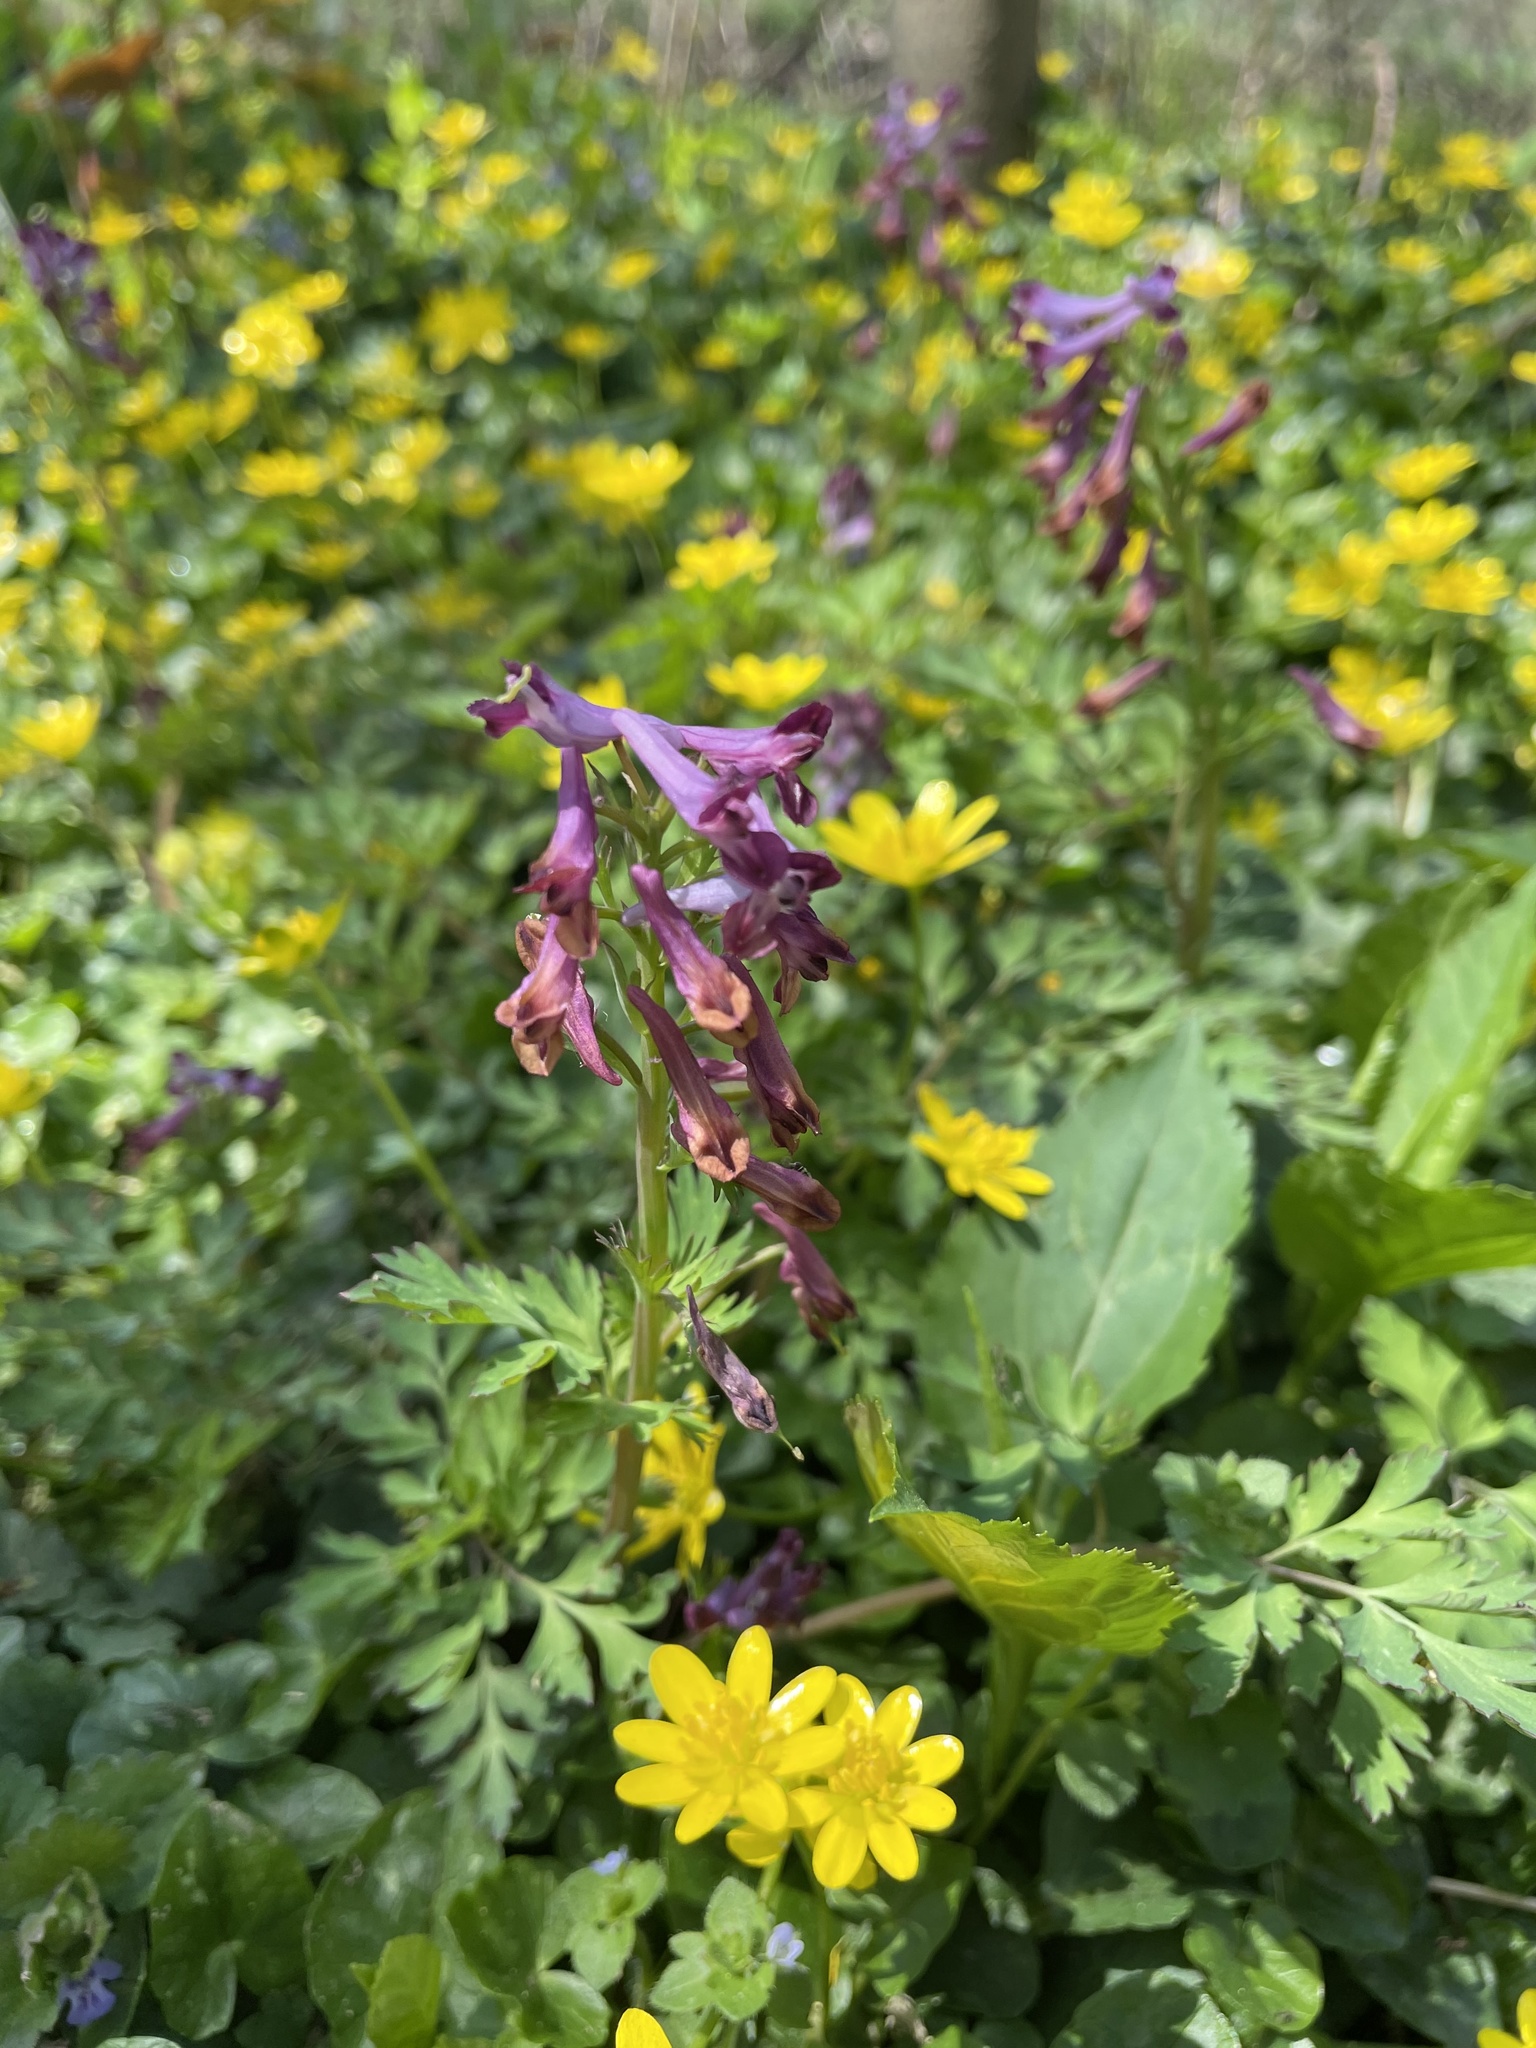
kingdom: Plantae
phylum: Tracheophyta
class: Magnoliopsida
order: Ranunculales
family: Papaveraceae
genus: Corydalis
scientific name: Corydalis incisa
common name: Incised fumewort
